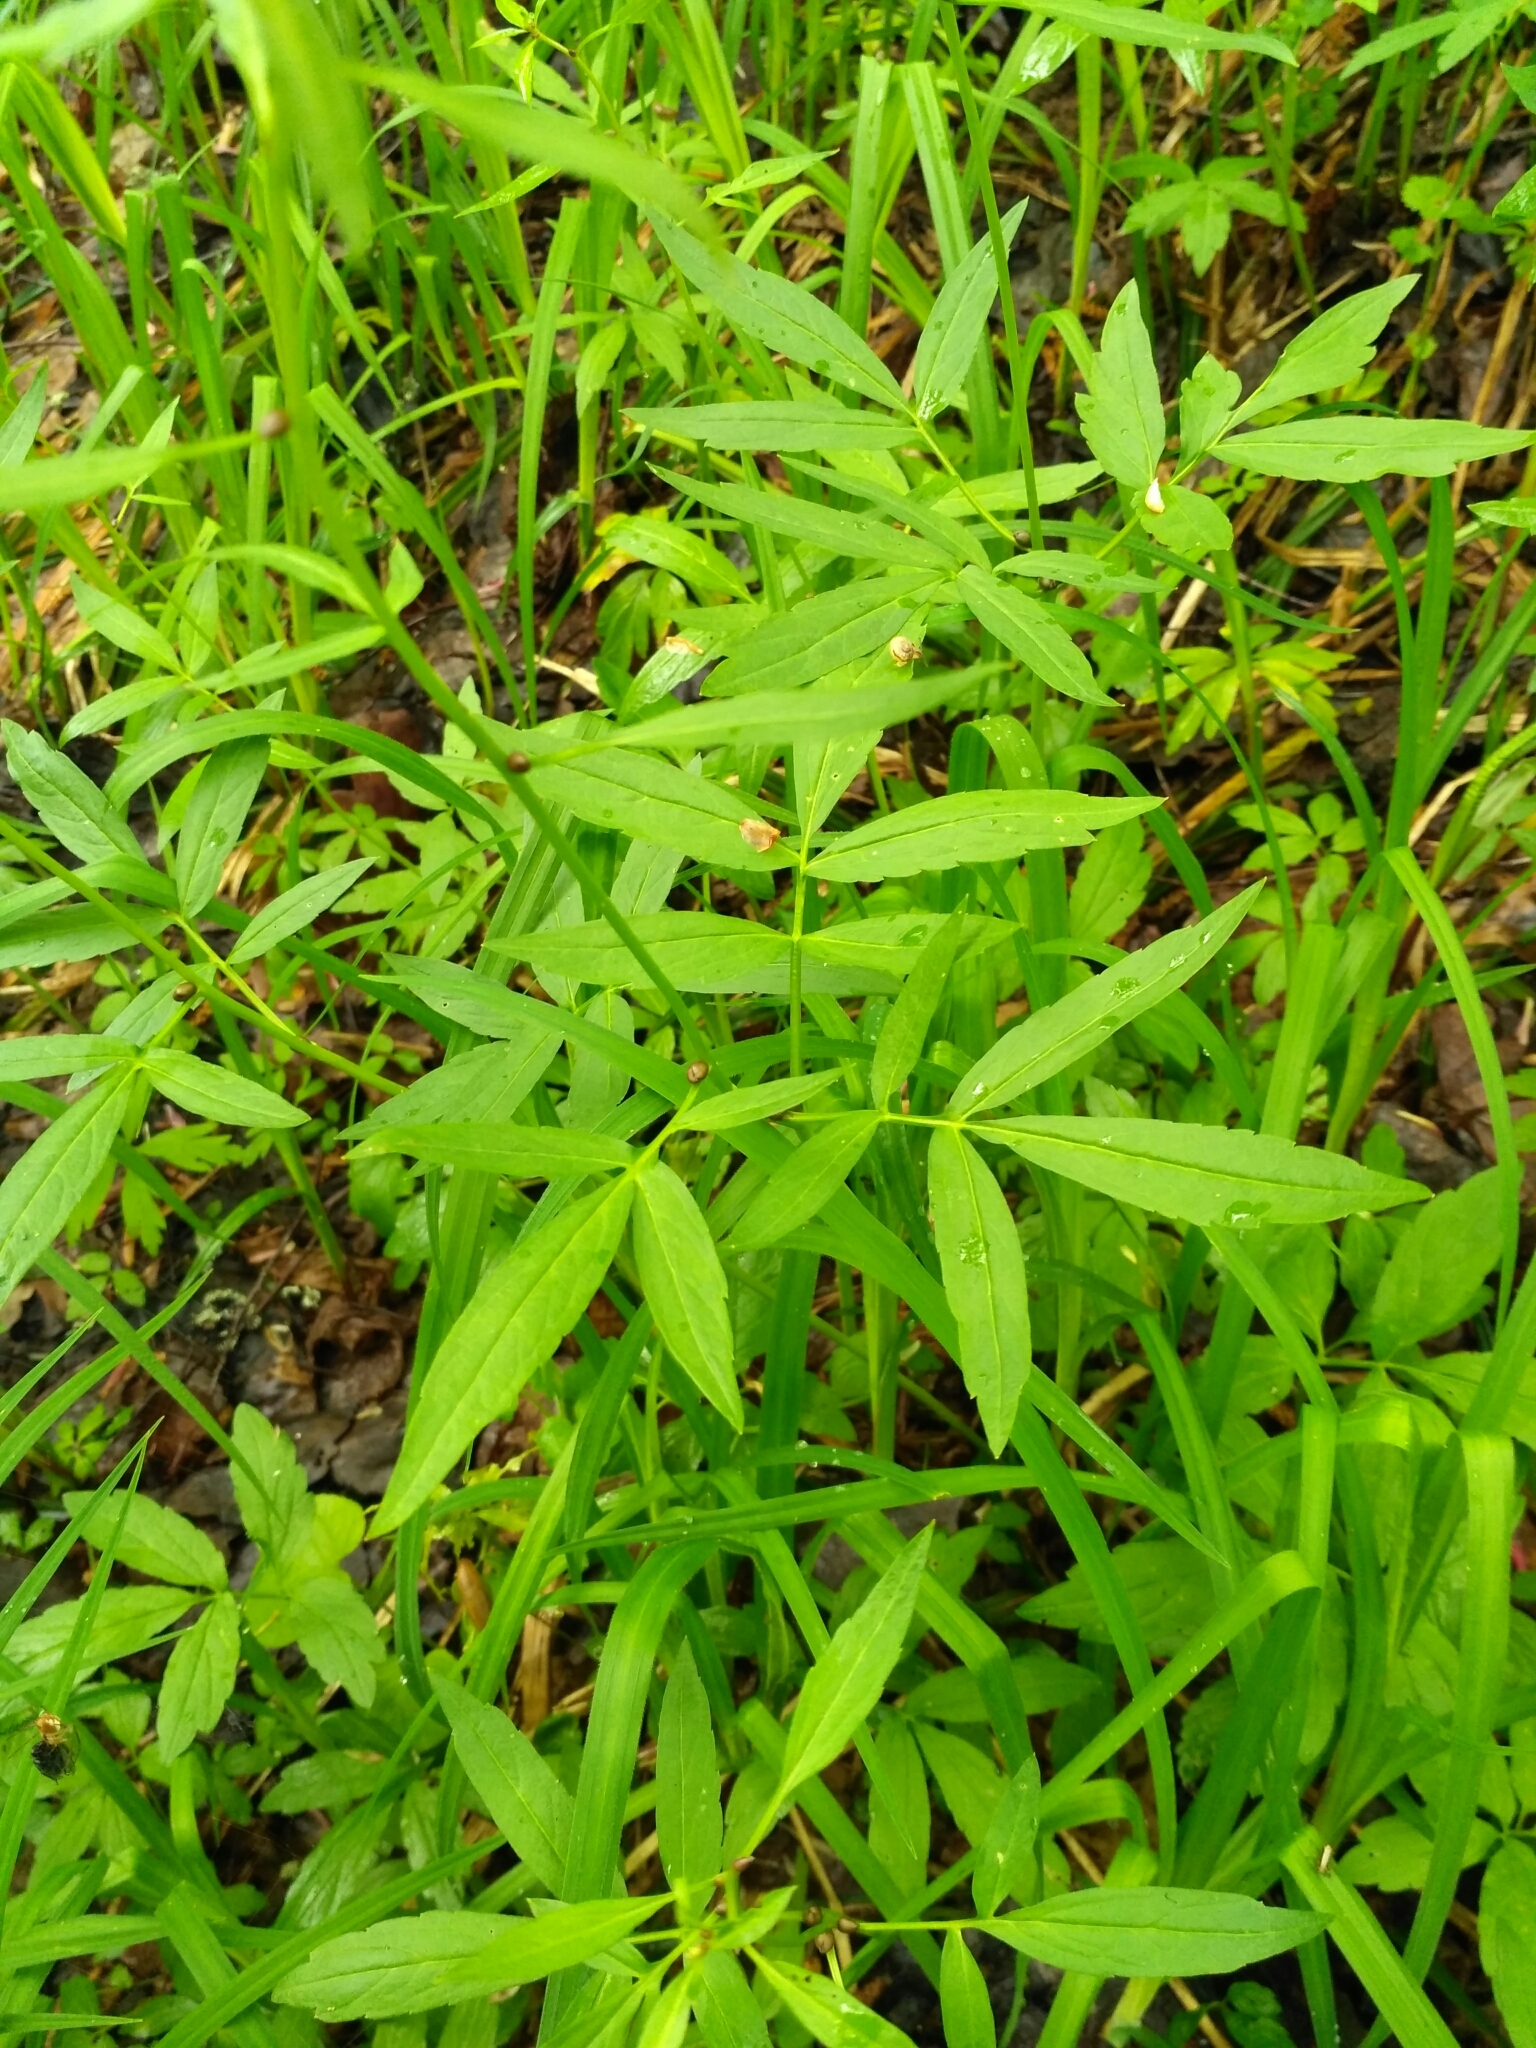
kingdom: Plantae
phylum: Tracheophyta
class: Magnoliopsida
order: Brassicales
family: Brassicaceae
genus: Cardamine
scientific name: Cardamine bulbifera
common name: Coralroot bittercress
